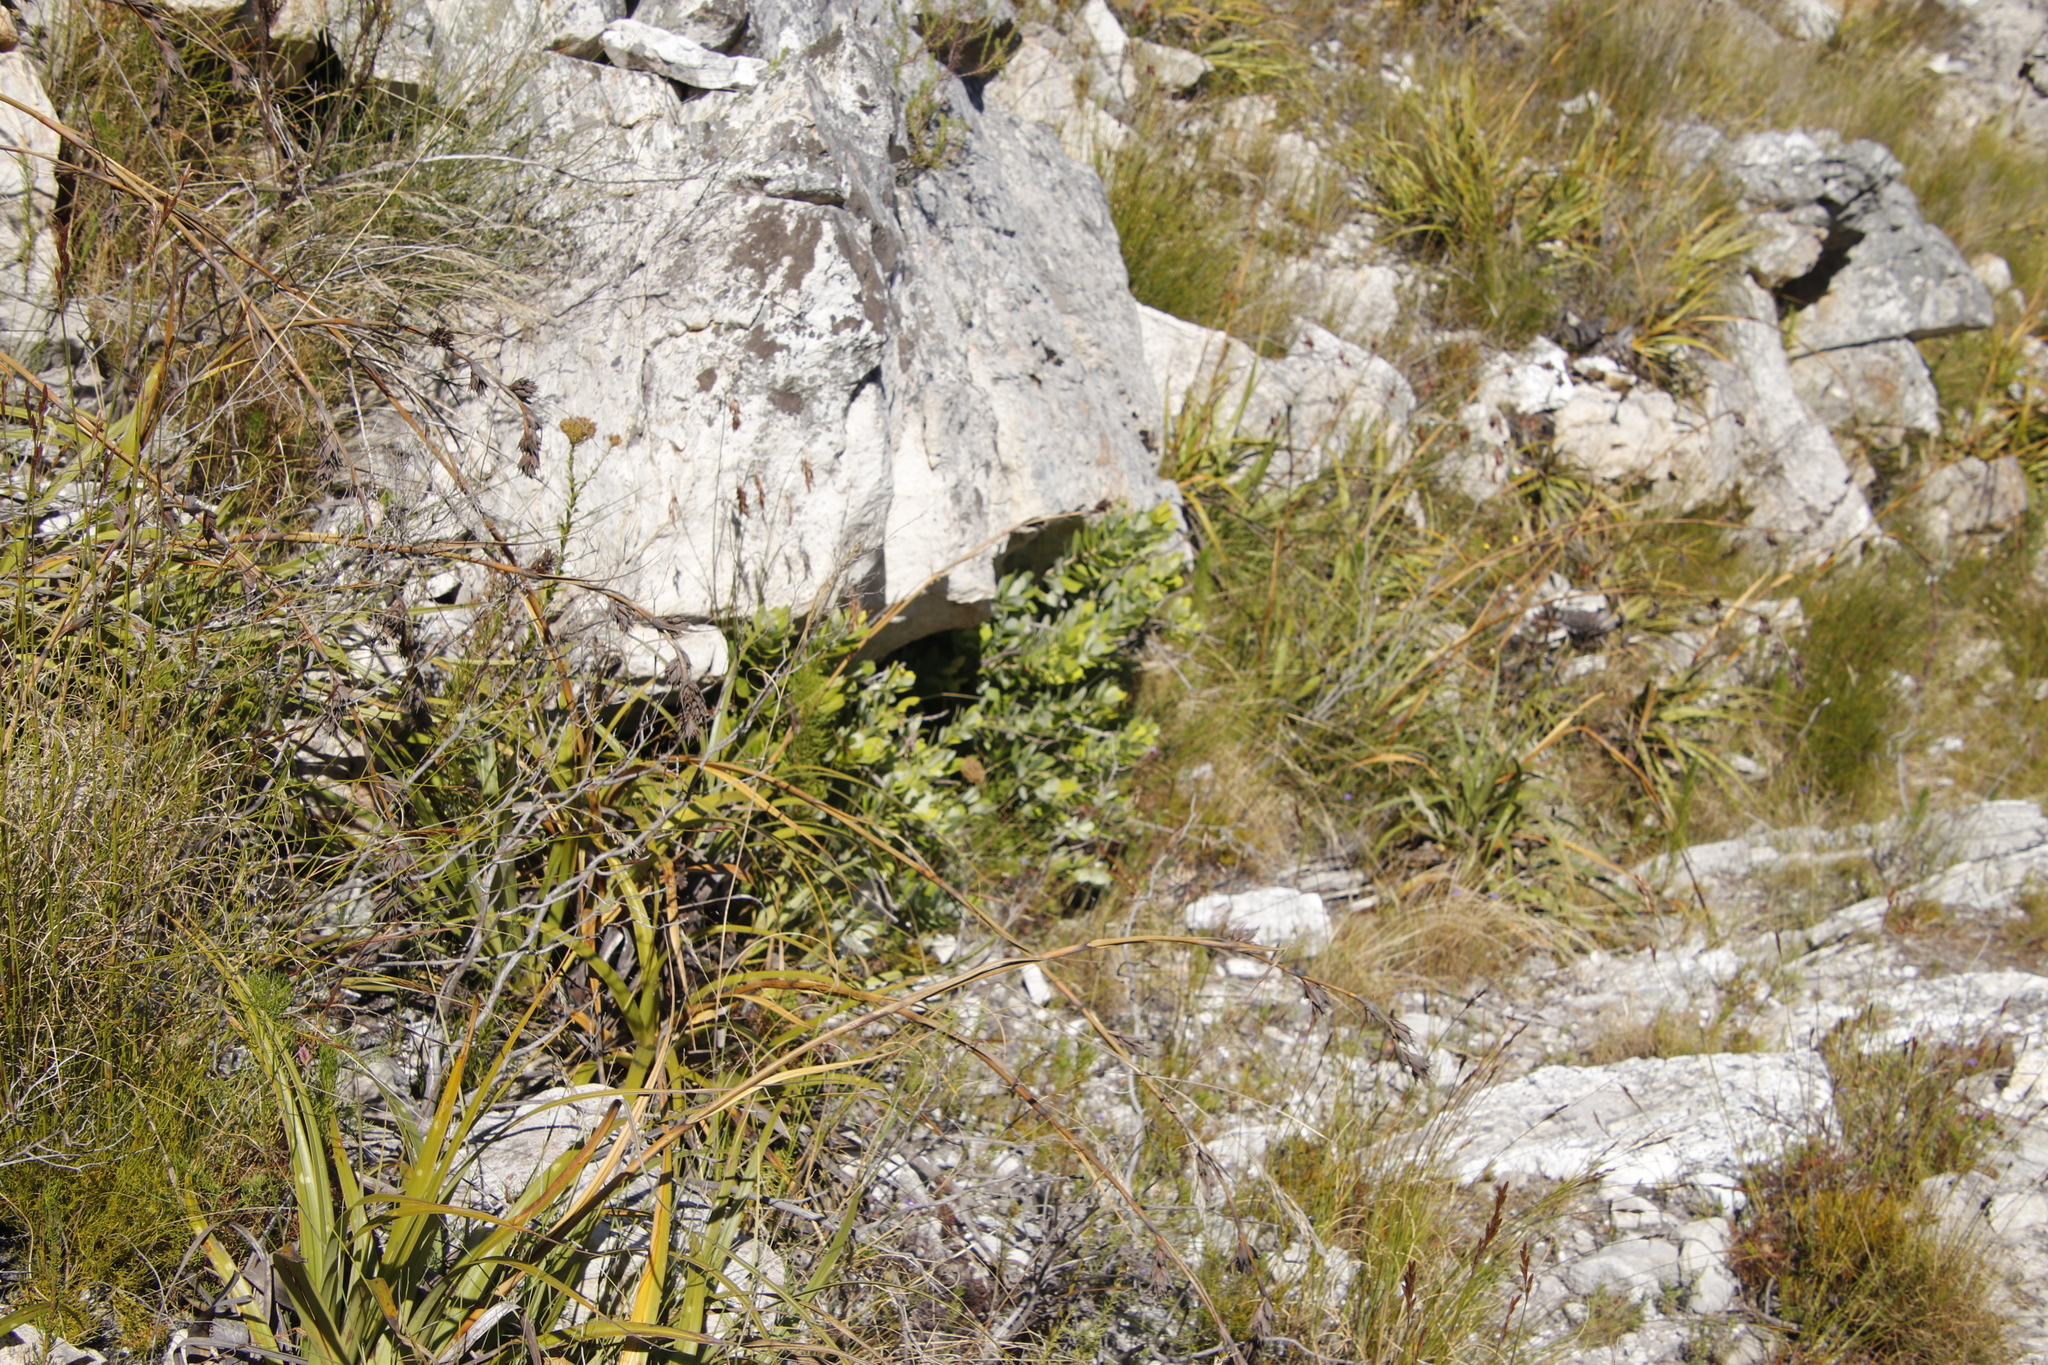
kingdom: Plantae
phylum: Tracheophyta
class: Magnoliopsida
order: Sapindales
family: Anacardiaceae
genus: Heeria
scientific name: Heeria argentea
